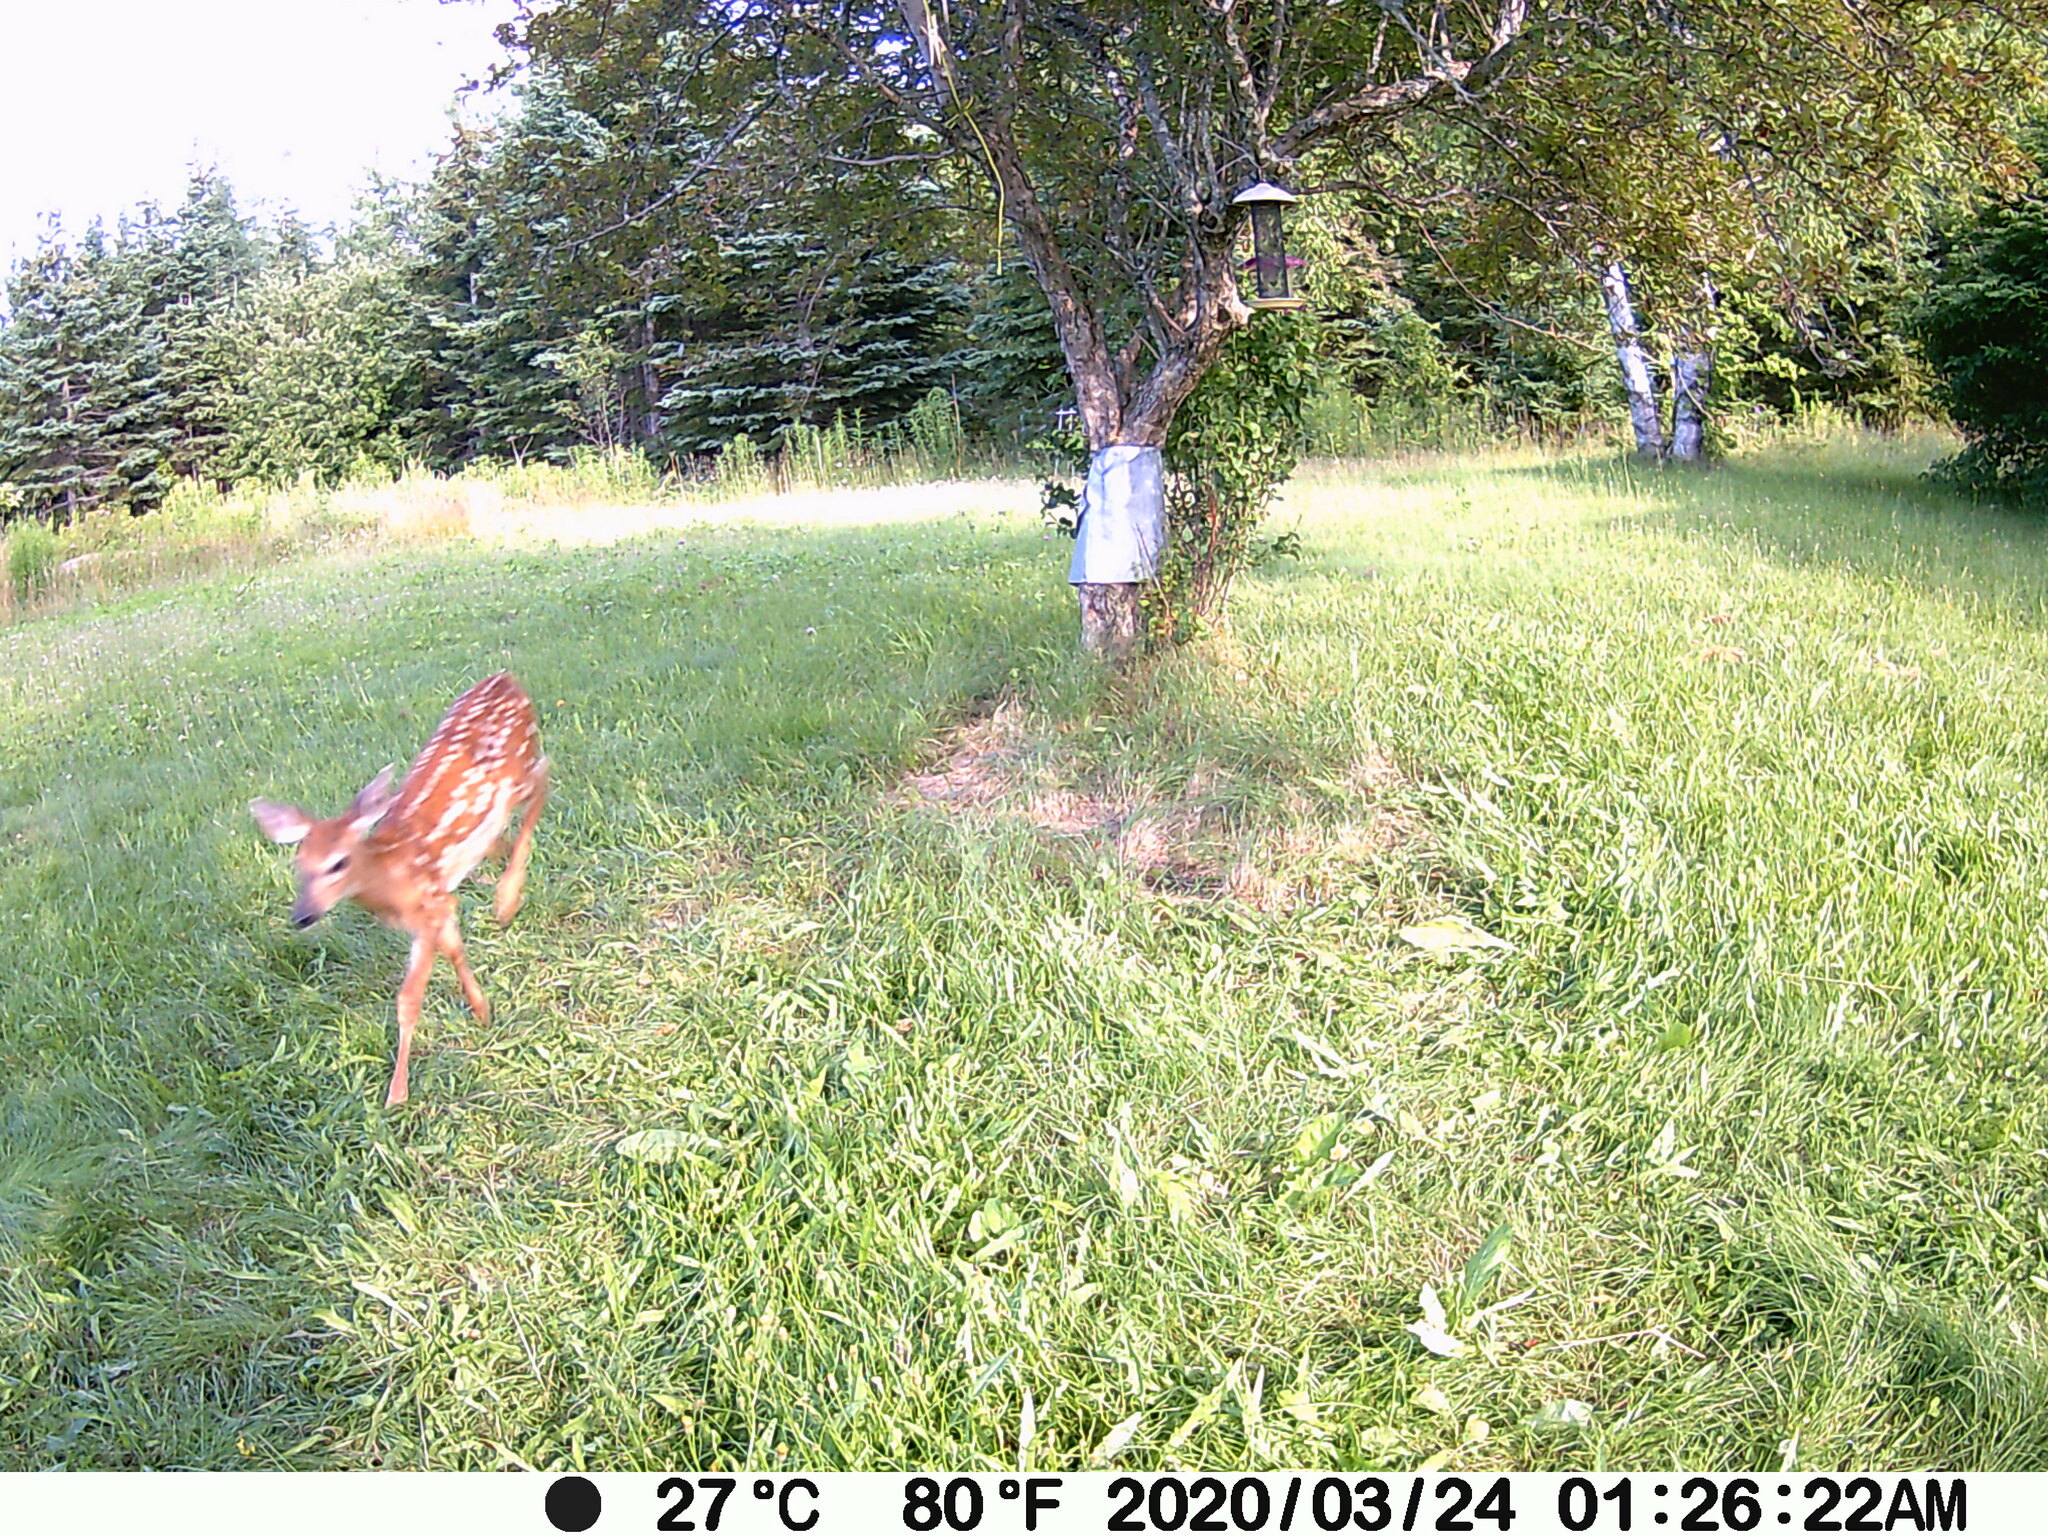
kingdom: Animalia
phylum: Chordata
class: Mammalia
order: Artiodactyla
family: Cervidae
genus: Odocoileus
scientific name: Odocoileus virginianus
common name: White-tailed deer
